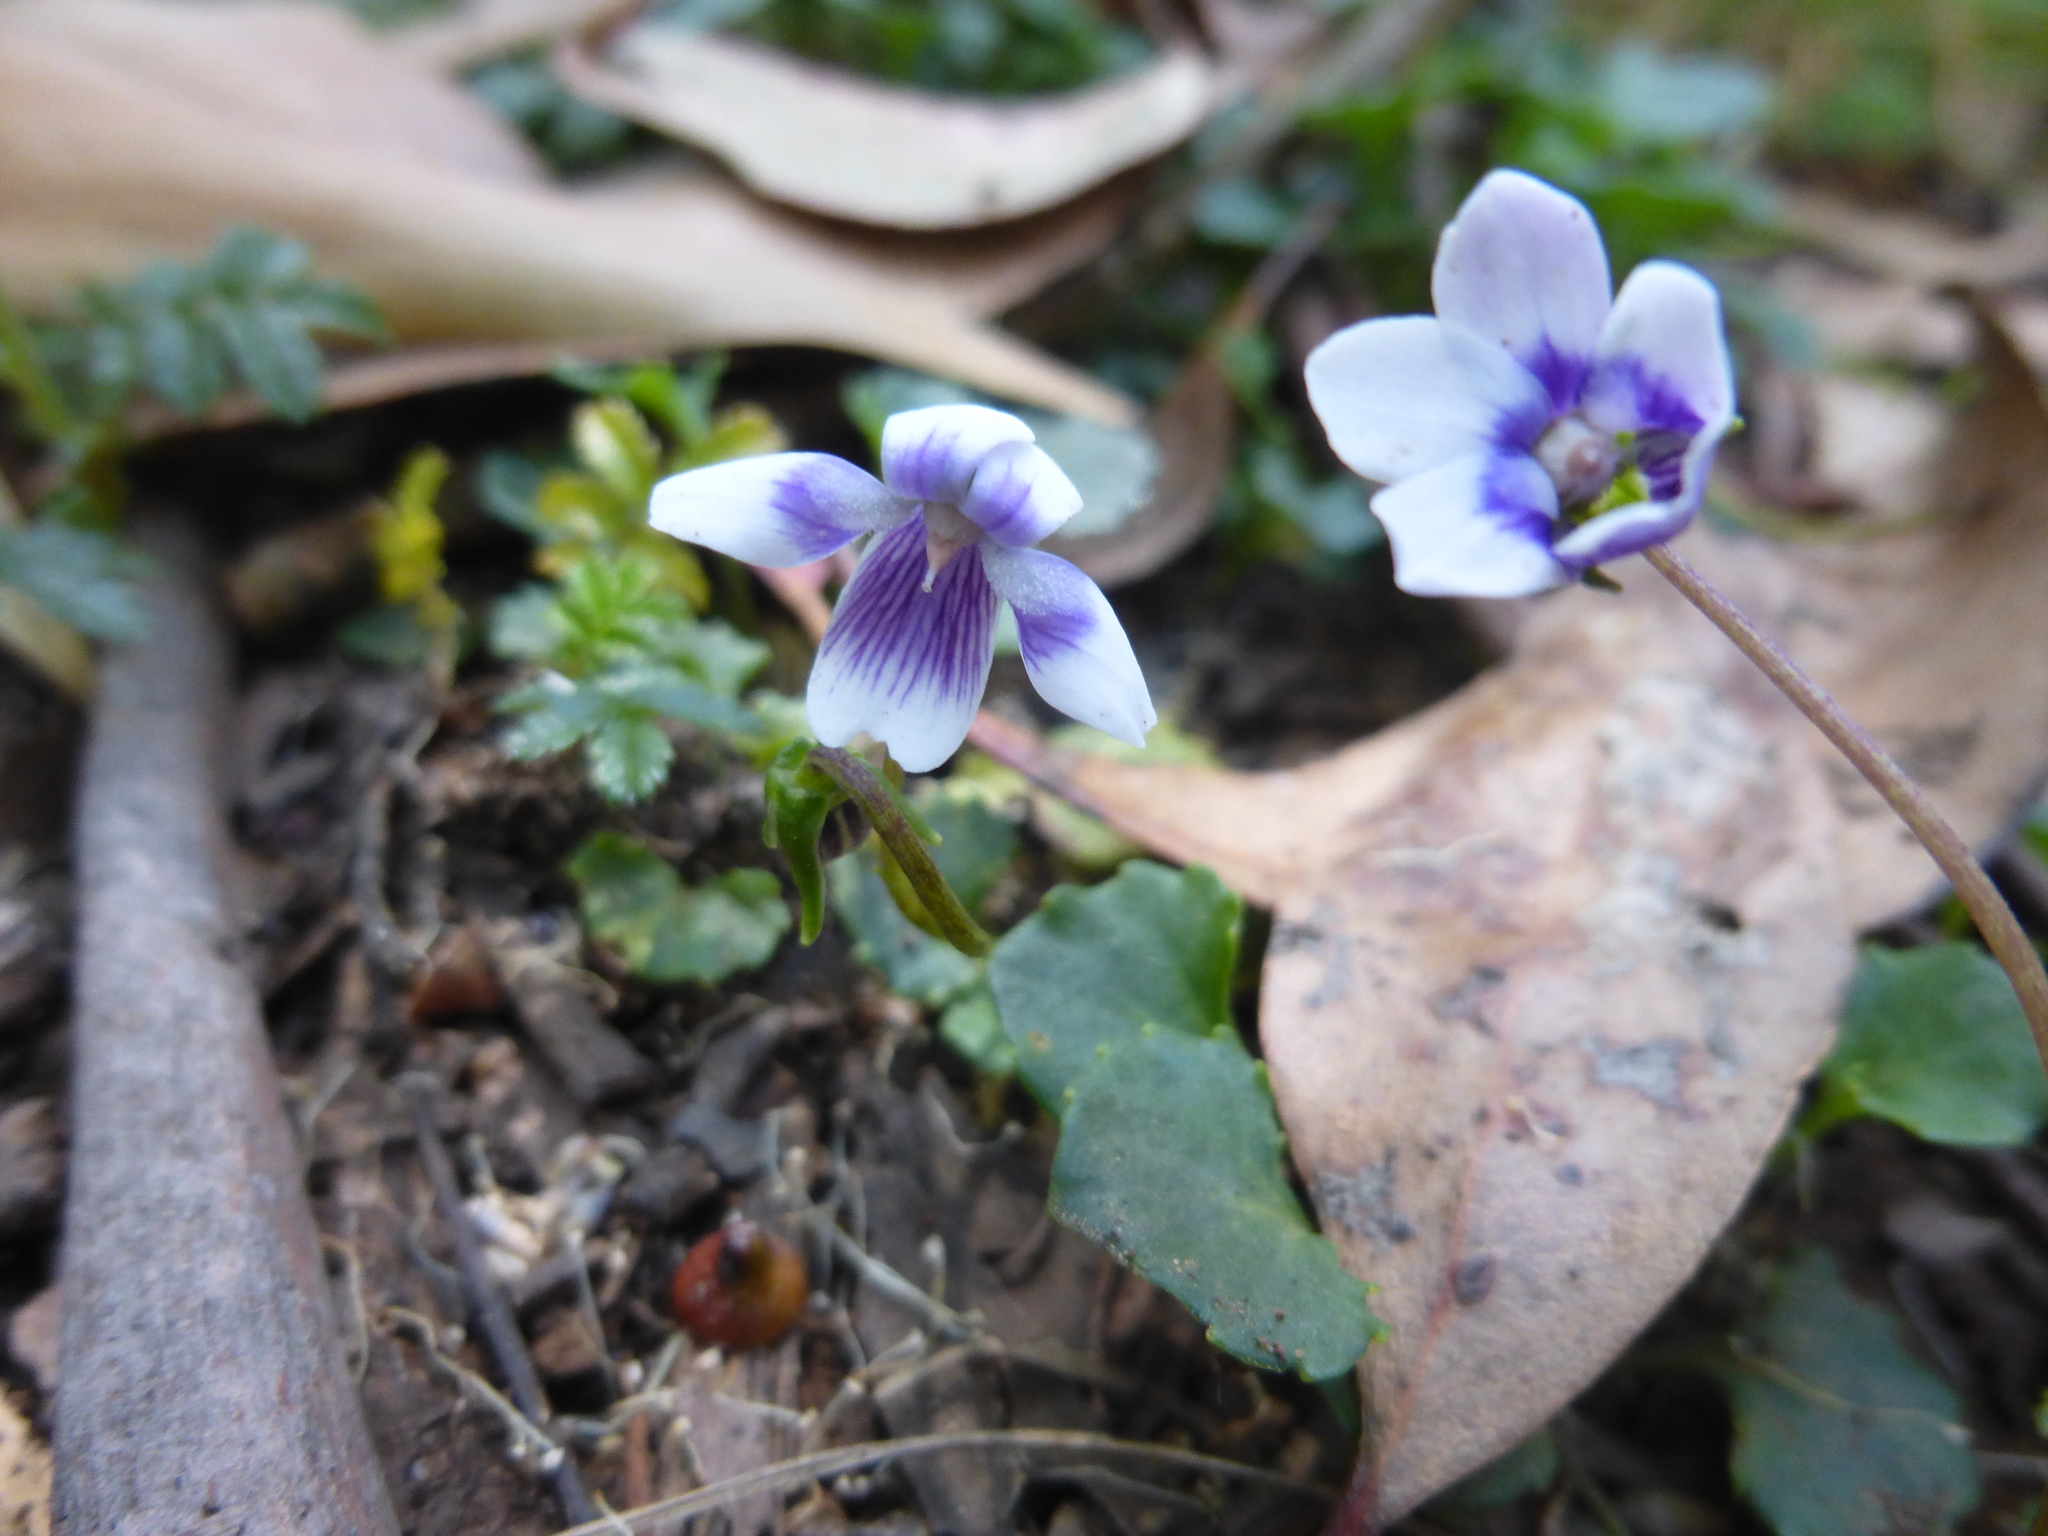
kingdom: Plantae
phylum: Tracheophyta
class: Magnoliopsida
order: Malpighiales
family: Violaceae
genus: Viola
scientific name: Viola hederacea
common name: Australian violet
